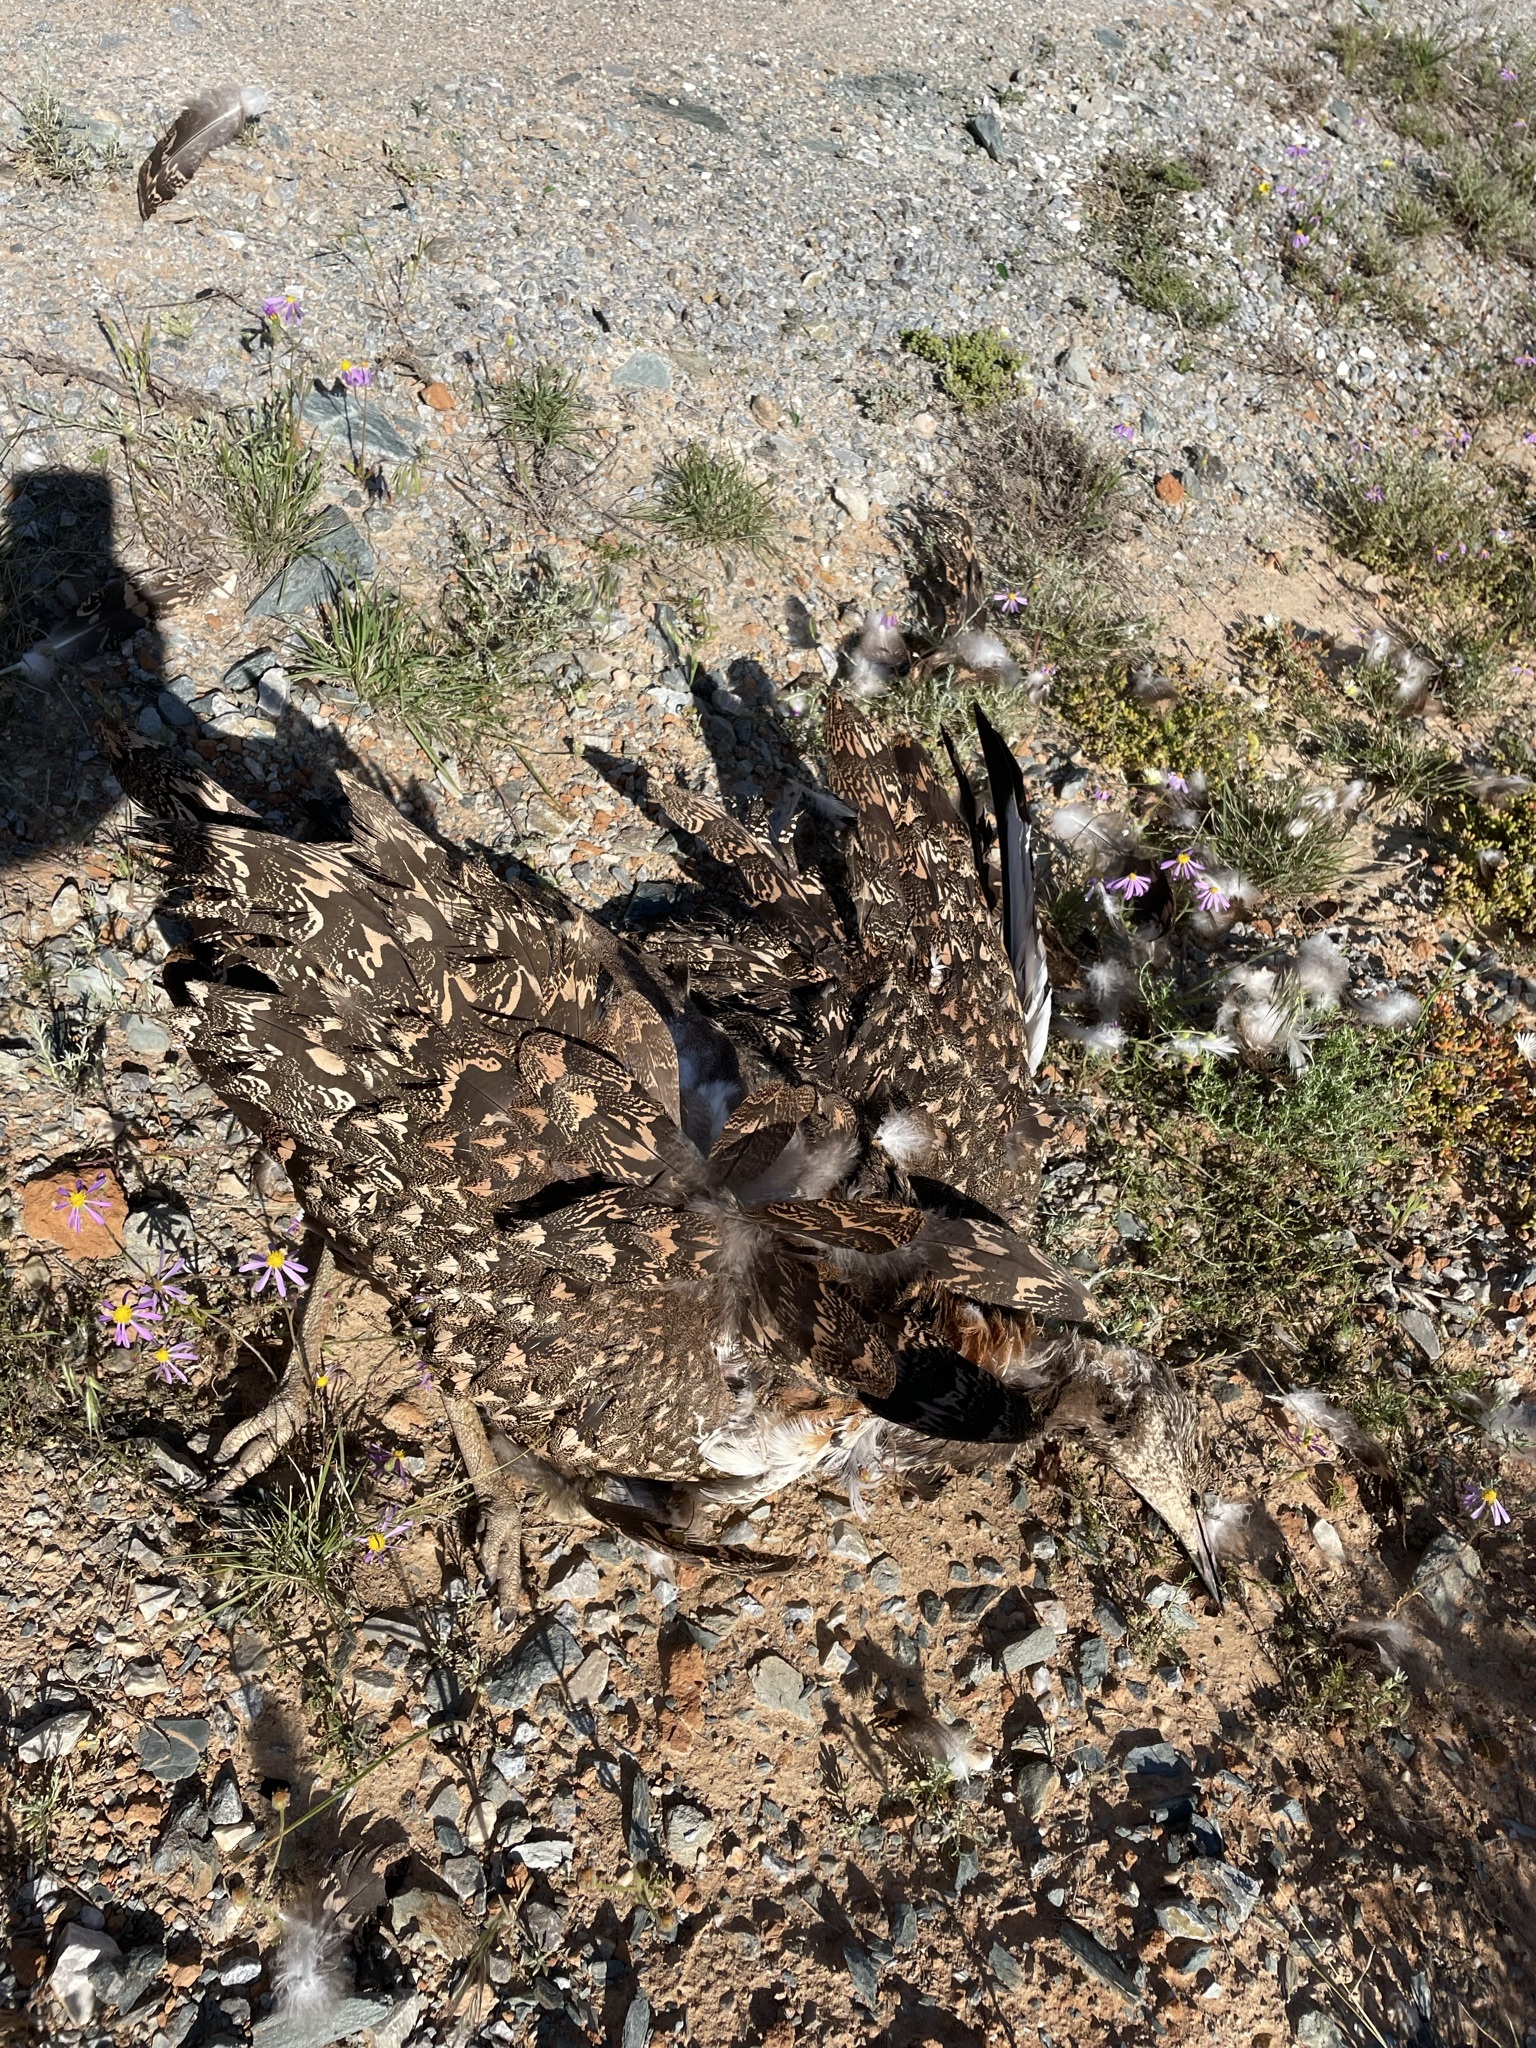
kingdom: Animalia
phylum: Chordata
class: Aves
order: Otidiformes
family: Otididae
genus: Neotis
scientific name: Neotis ludwigii
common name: Ludwig's bustard
